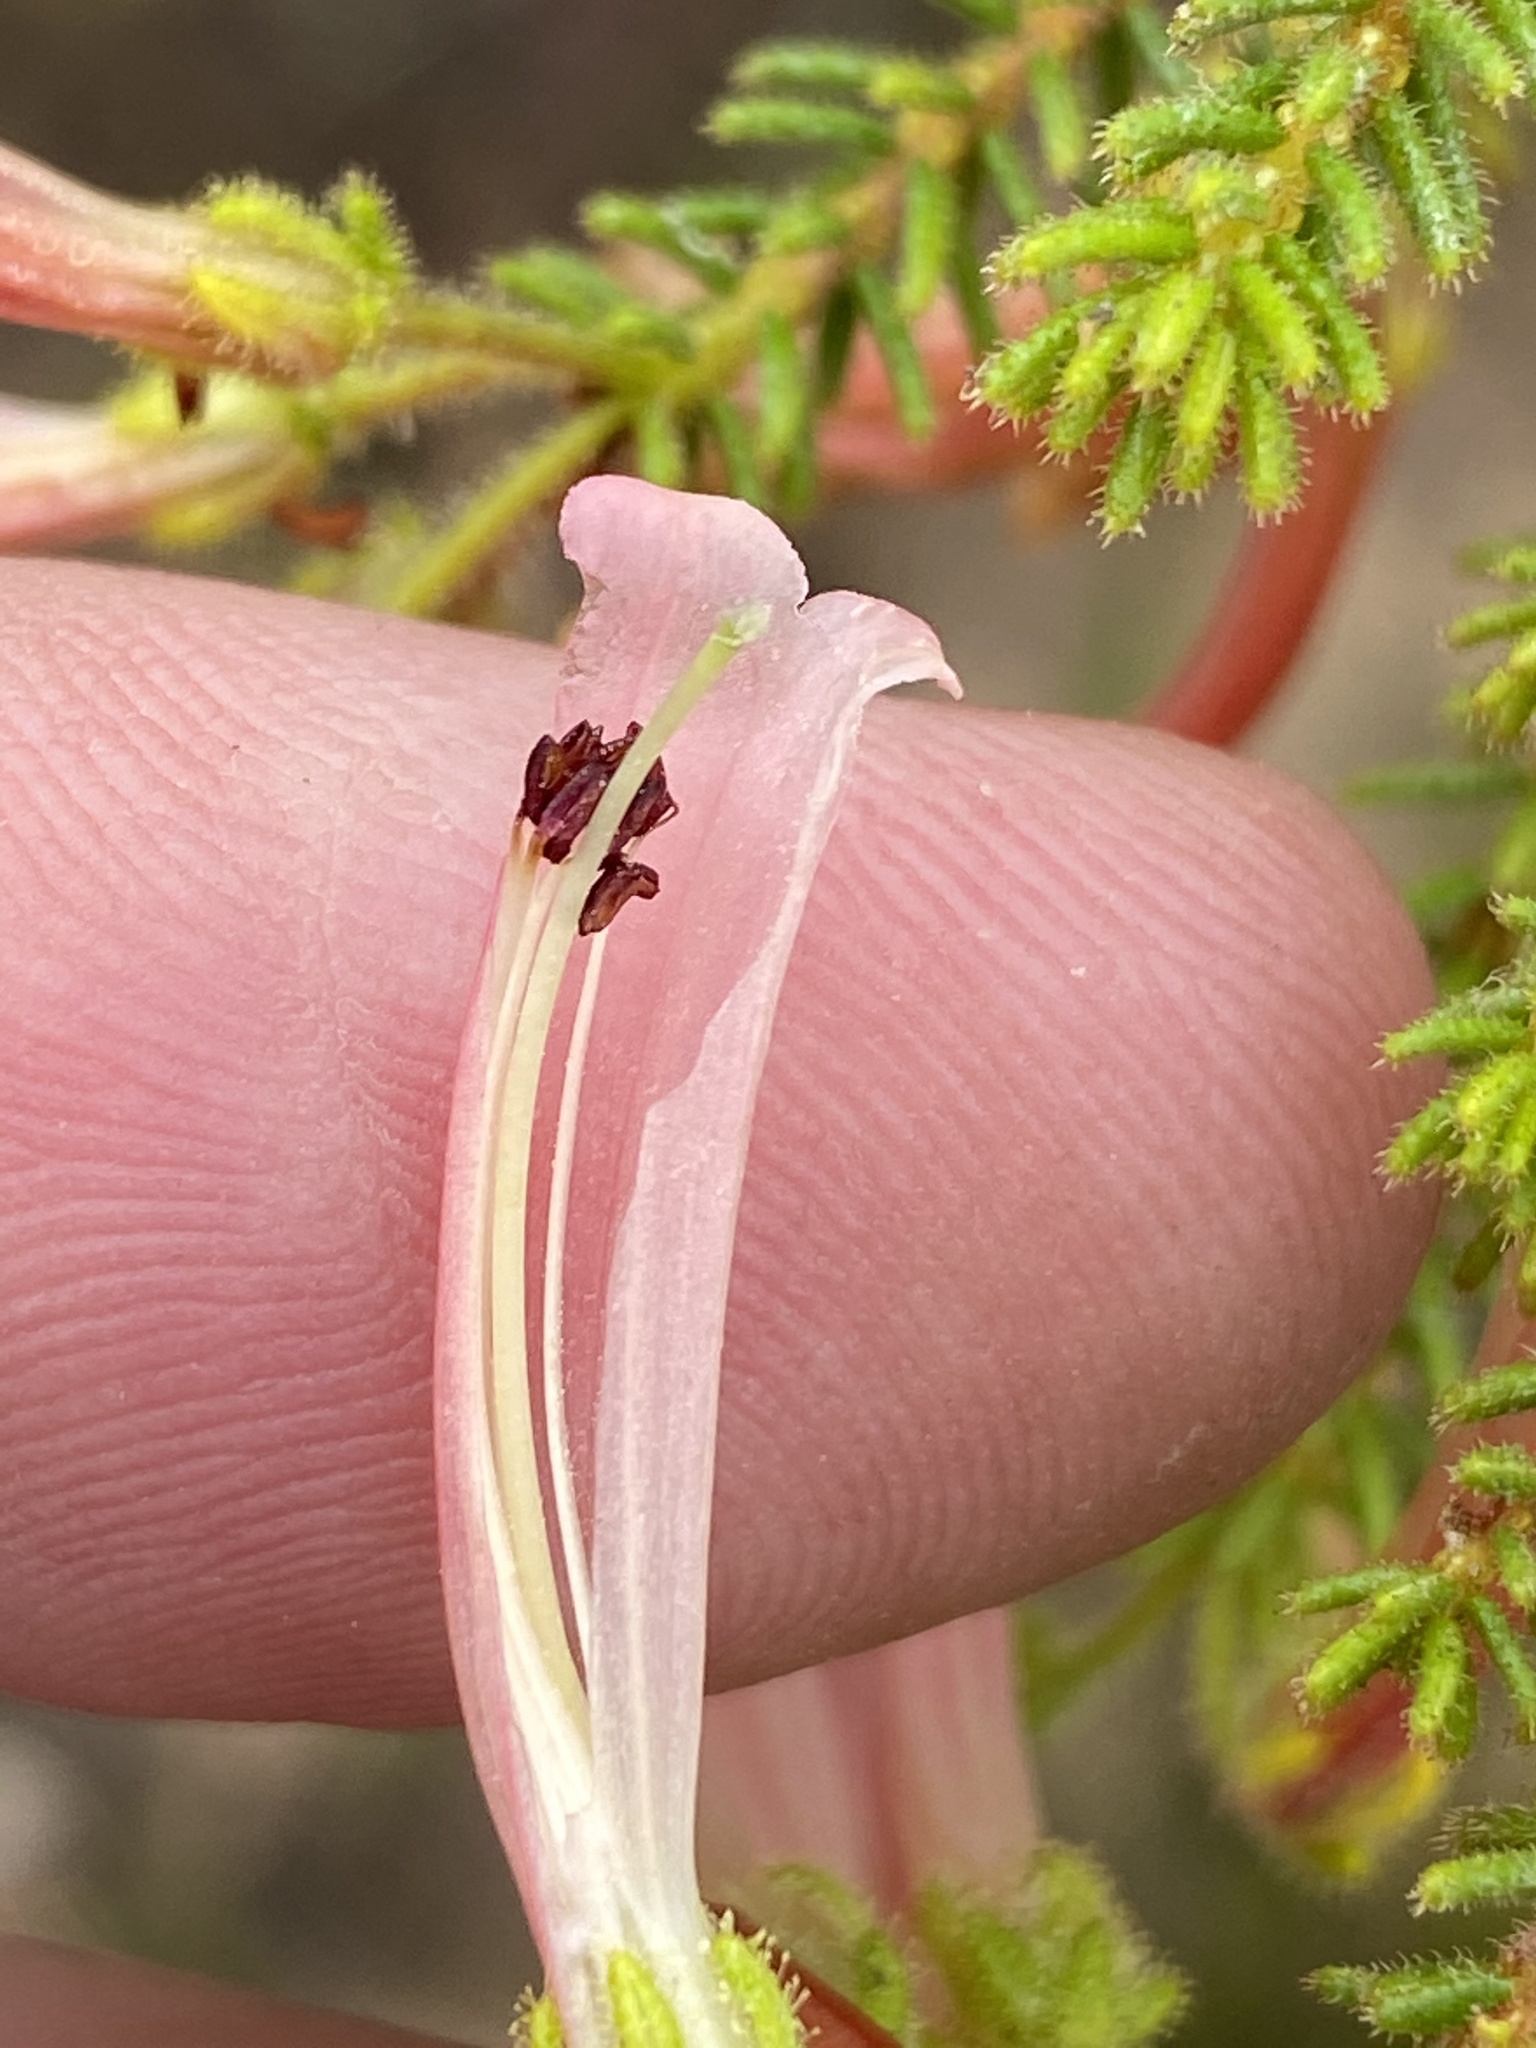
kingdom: Plantae
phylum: Tracheophyta
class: Magnoliopsida
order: Ericales
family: Ericaceae
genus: Erica
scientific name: Erica glandulosa
